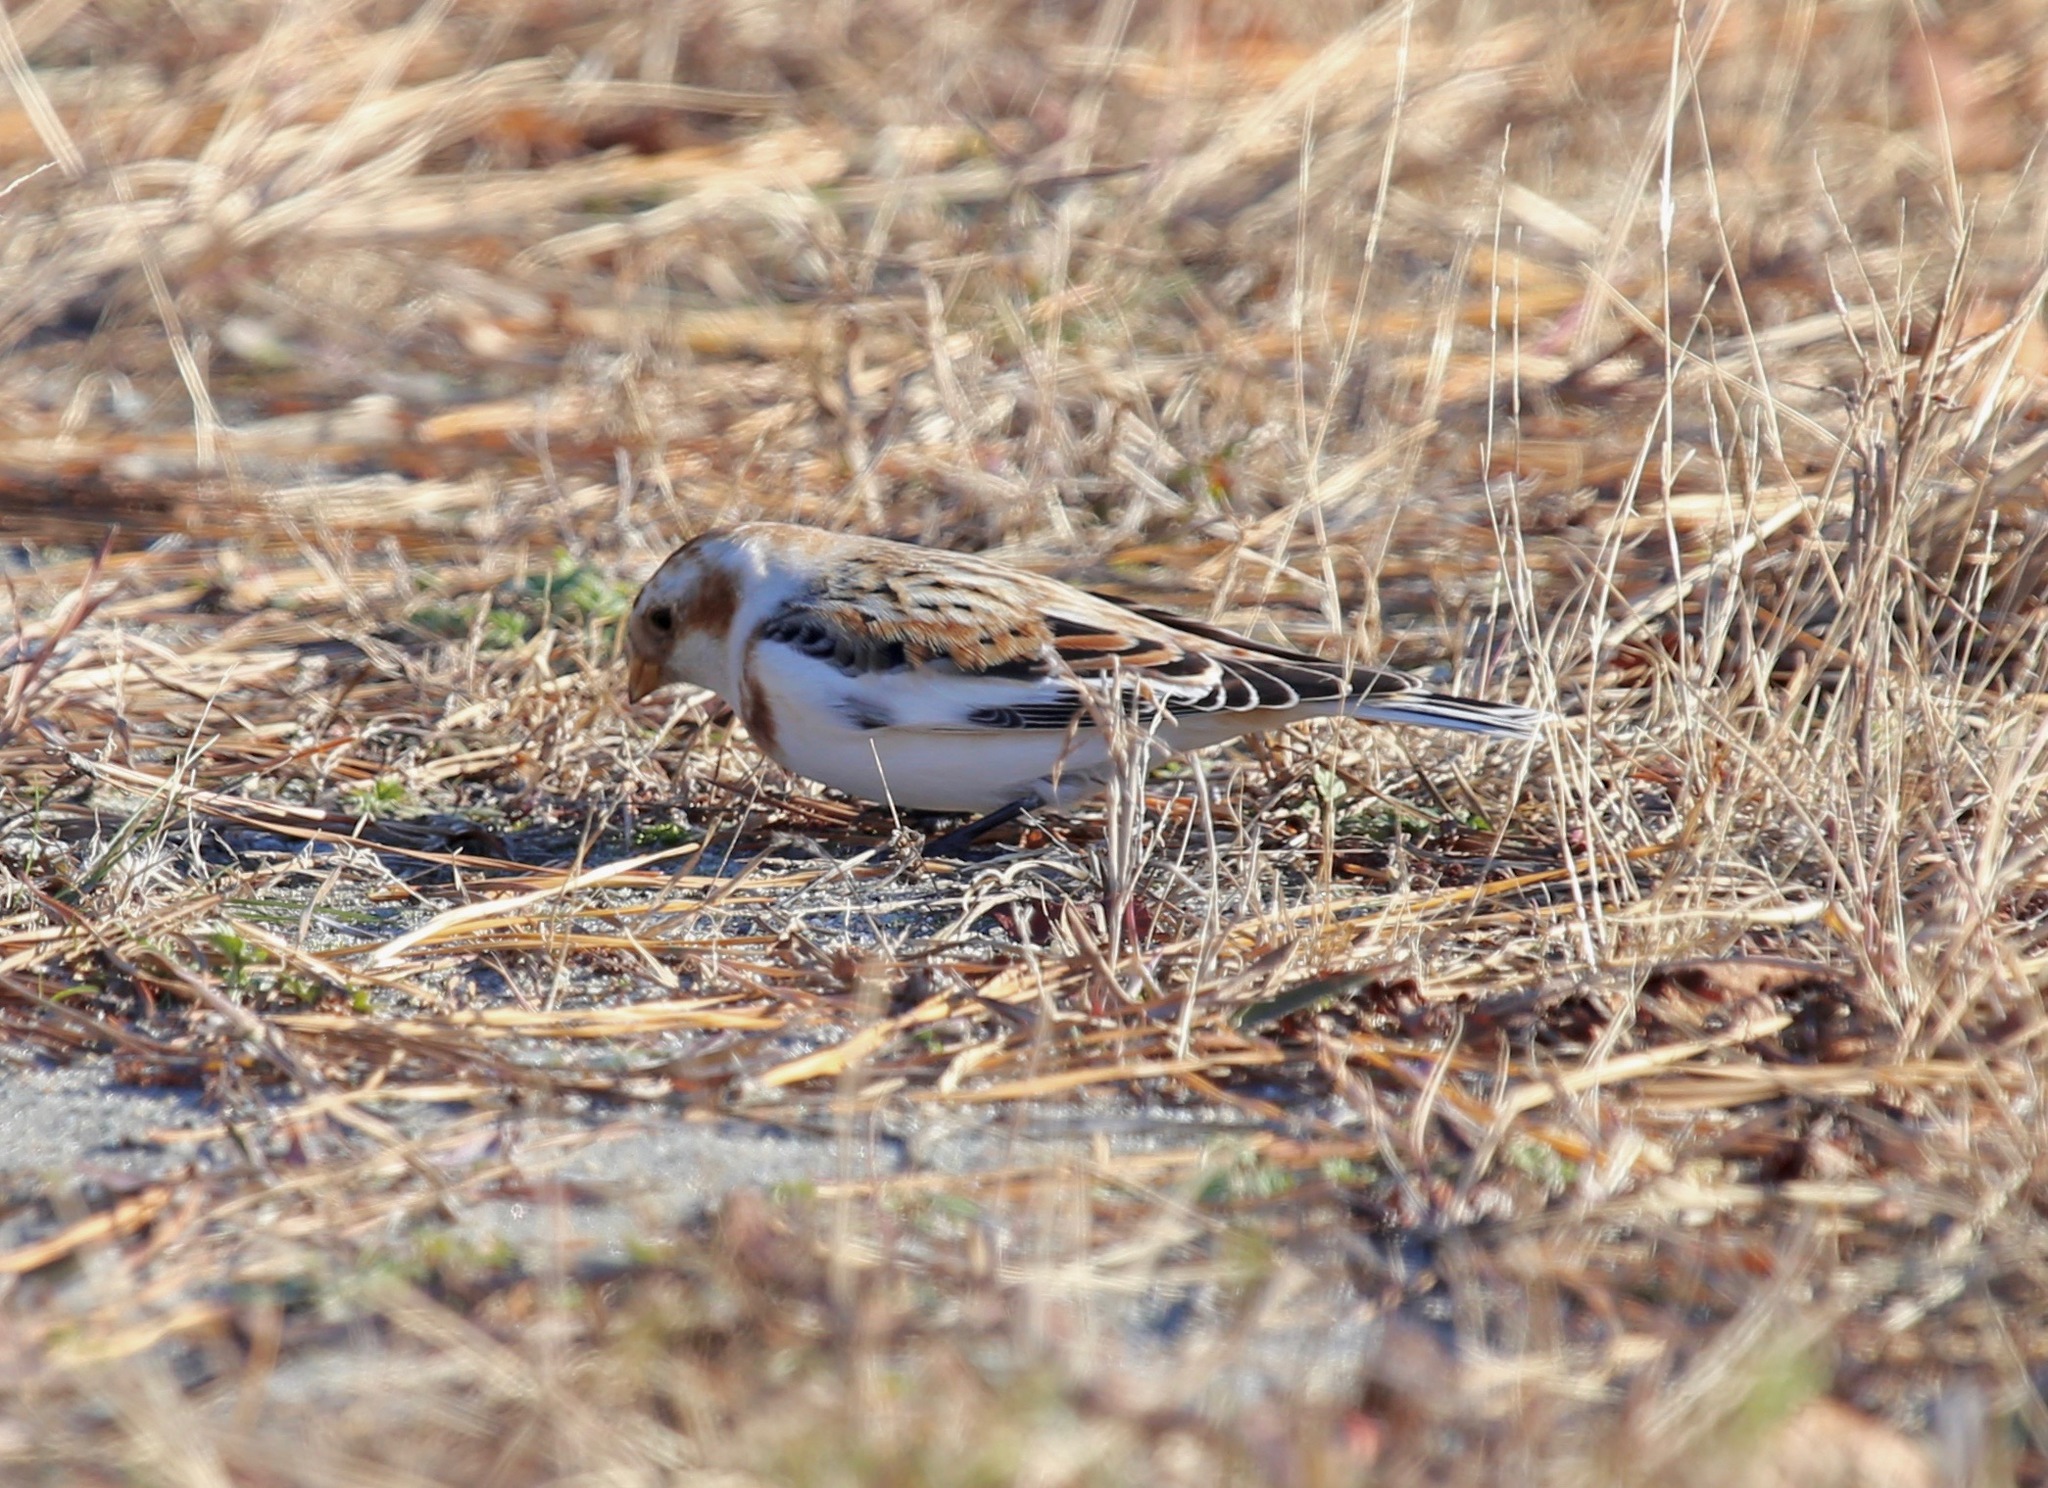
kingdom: Animalia
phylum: Chordata
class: Aves
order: Passeriformes
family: Calcariidae
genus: Plectrophenax
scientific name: Plectrophenax nivalis
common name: Snow bunting
